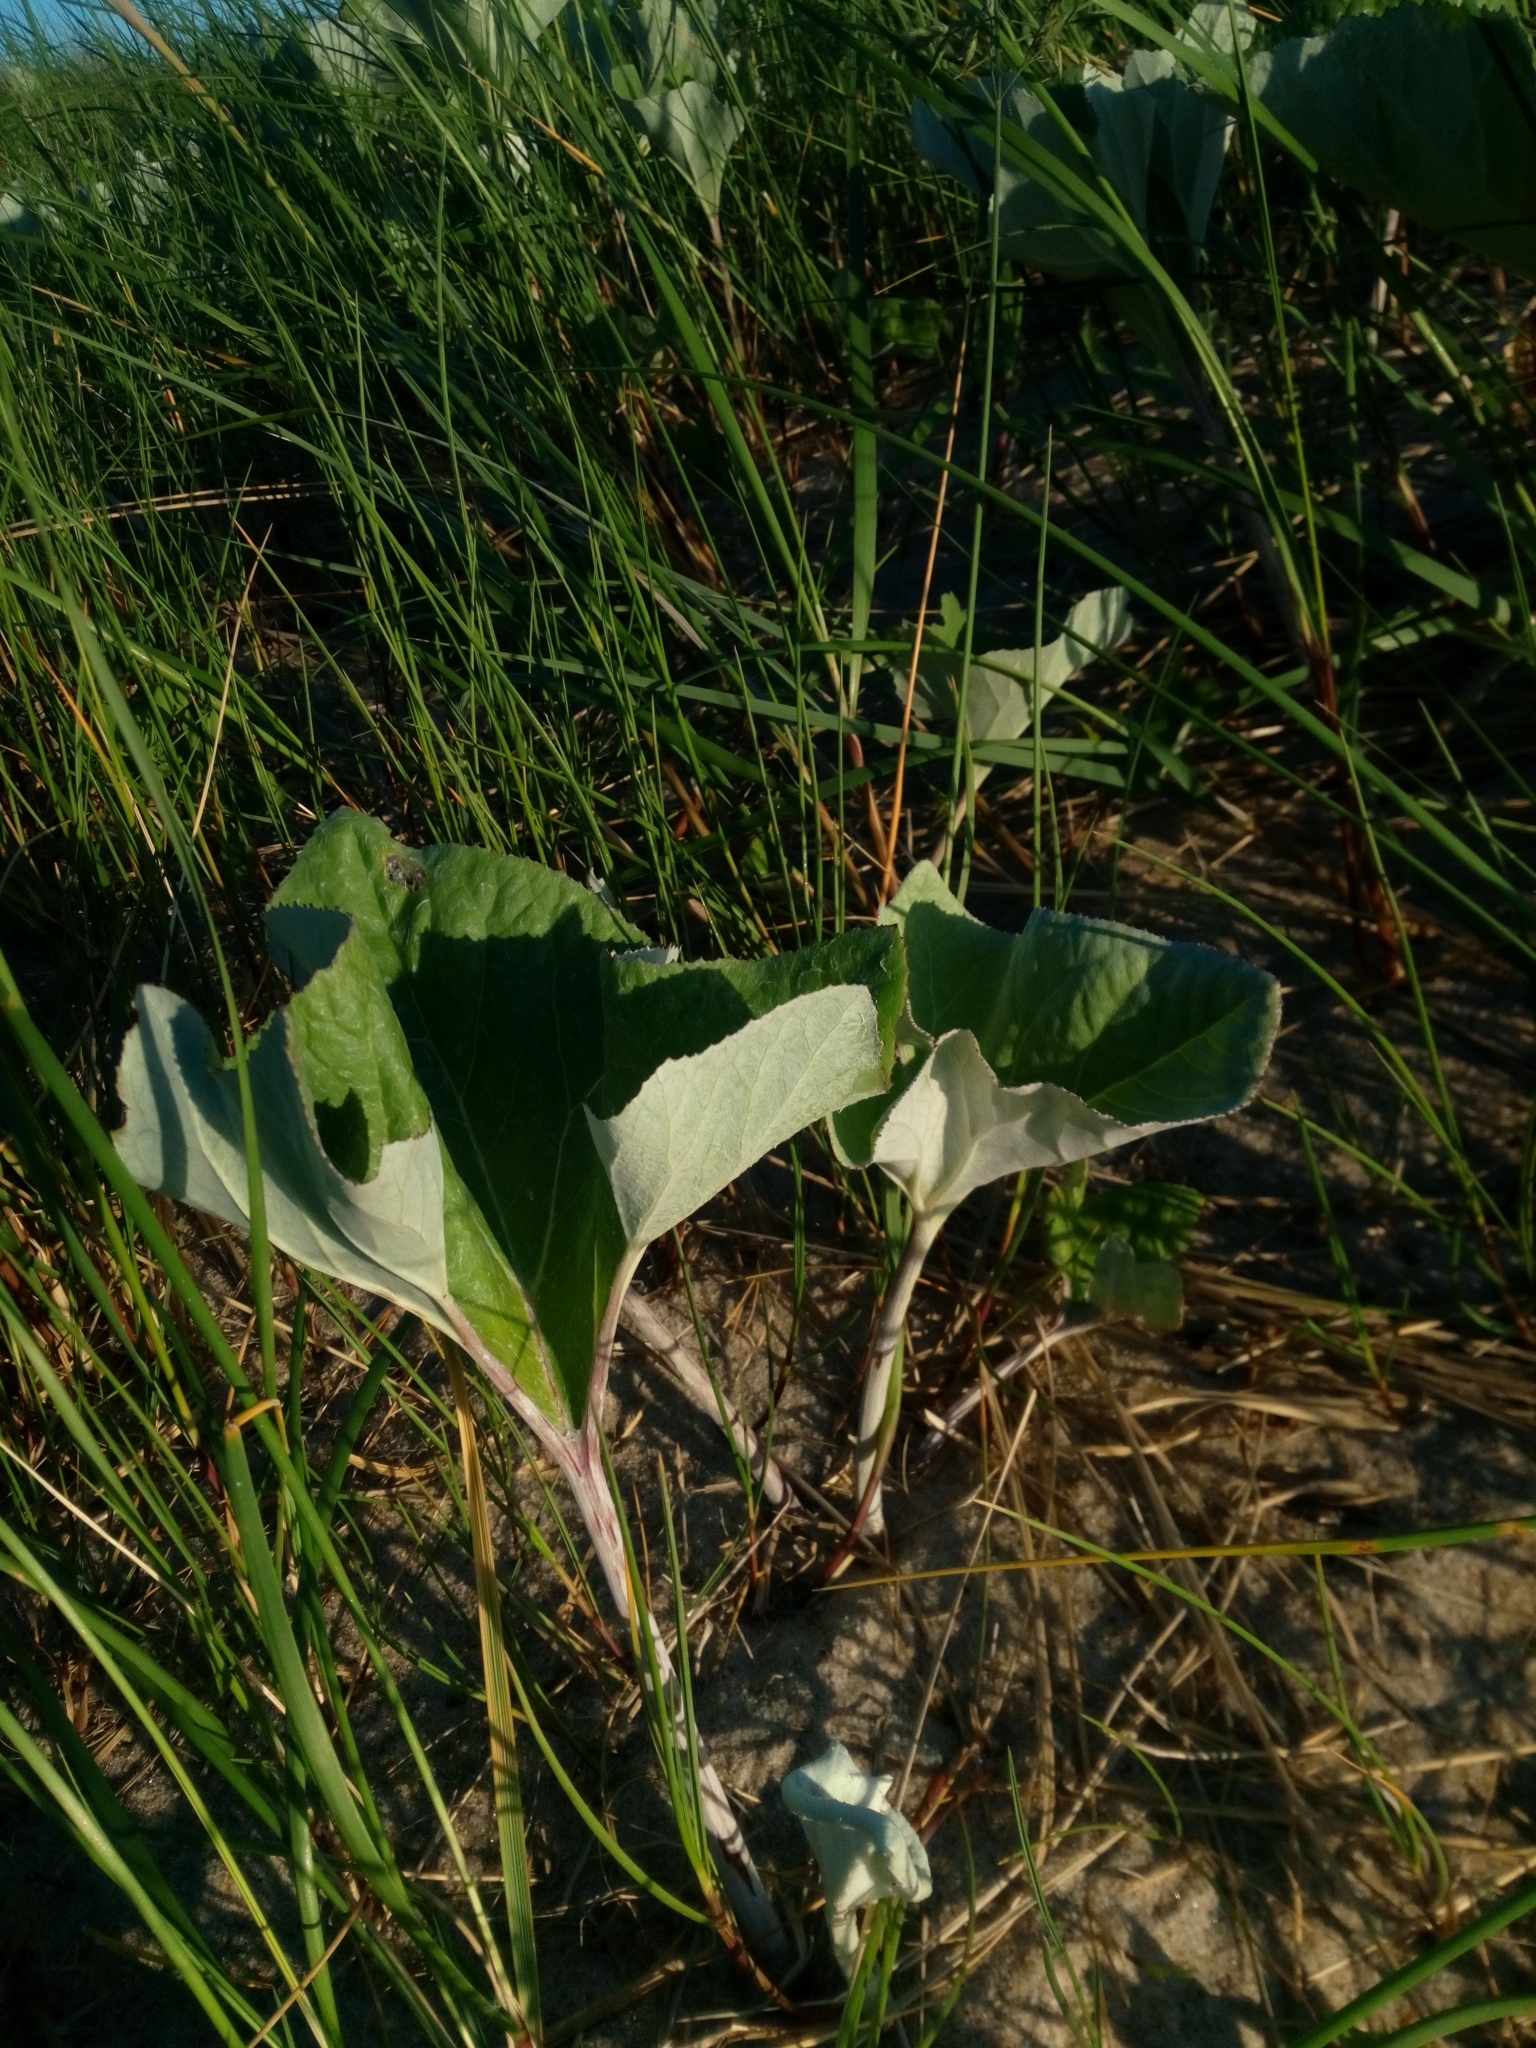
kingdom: Plantae
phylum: Tracheophyta
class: Magnoliopsida
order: Asterales
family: Asteraceae
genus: Petasites
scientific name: Petasites spurius
